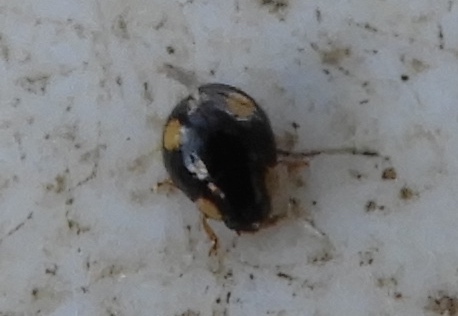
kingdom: Animalia
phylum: Arthropoda
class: Insecta
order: Coleoptera
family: Coccinellidae
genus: Hyperaspis
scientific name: Hyperaspis wickhami
